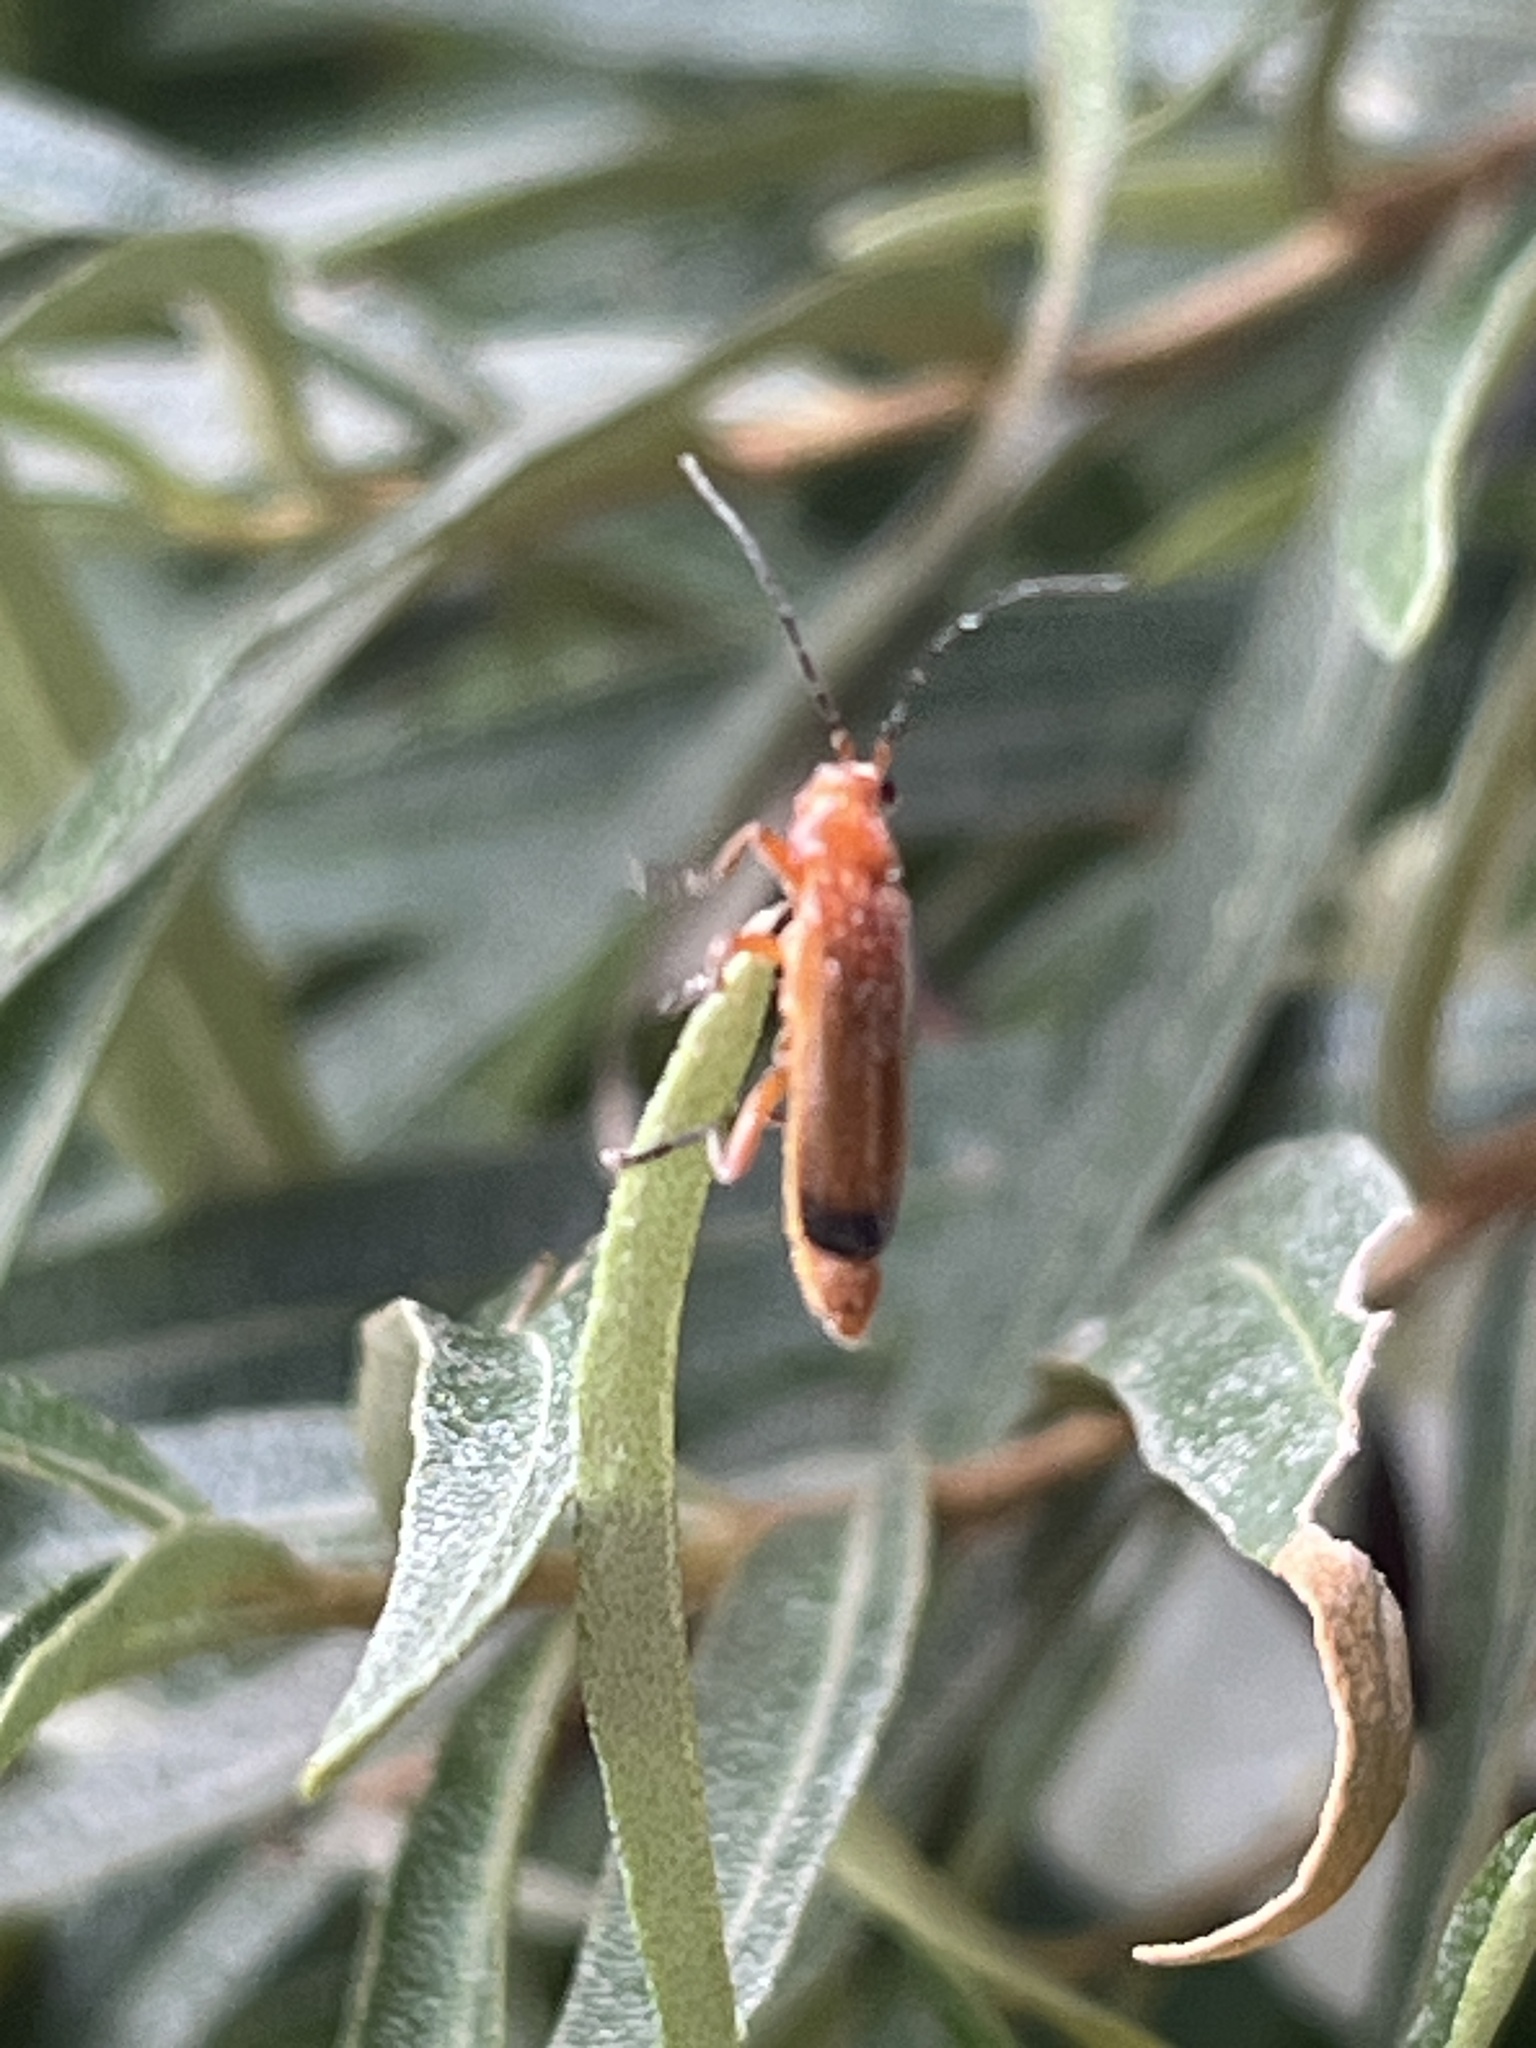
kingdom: Animalia
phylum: Arthropoda
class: Insecta
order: Coleoptera
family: Cantharidae
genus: Rhagonycha
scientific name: Rhagonycha fulva
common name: Common red soldier beetle
